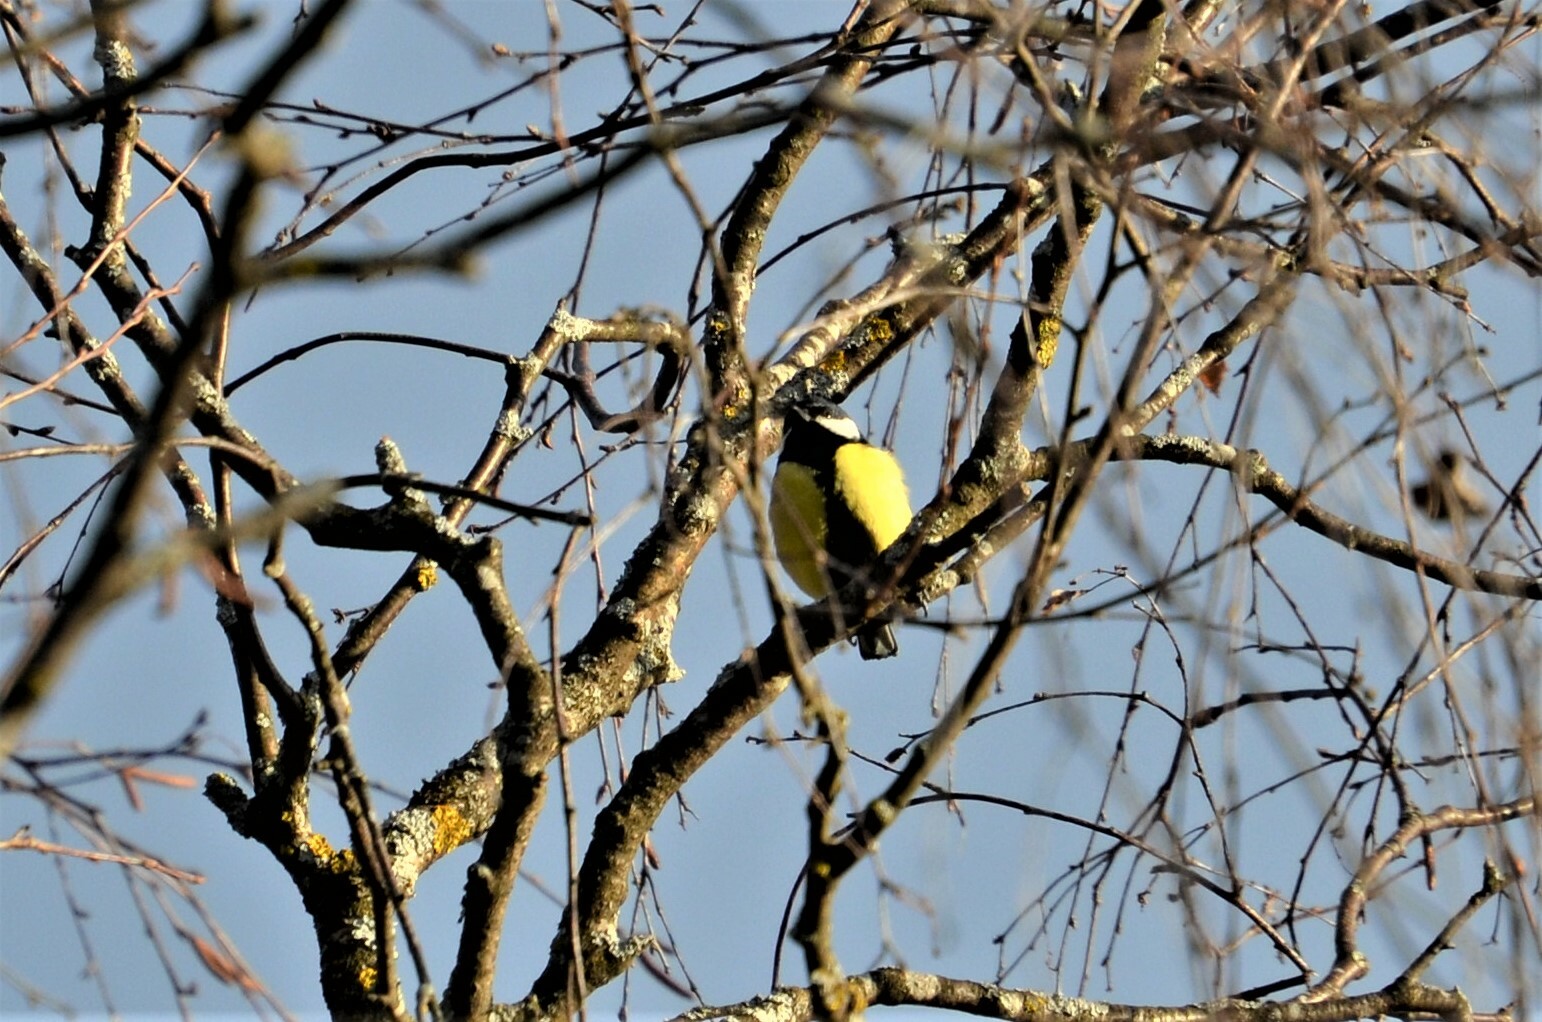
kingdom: Animalia
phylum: Chordata
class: Aves
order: Passeriformes
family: Paridae
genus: Parus
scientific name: Parus major
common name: Great tit
